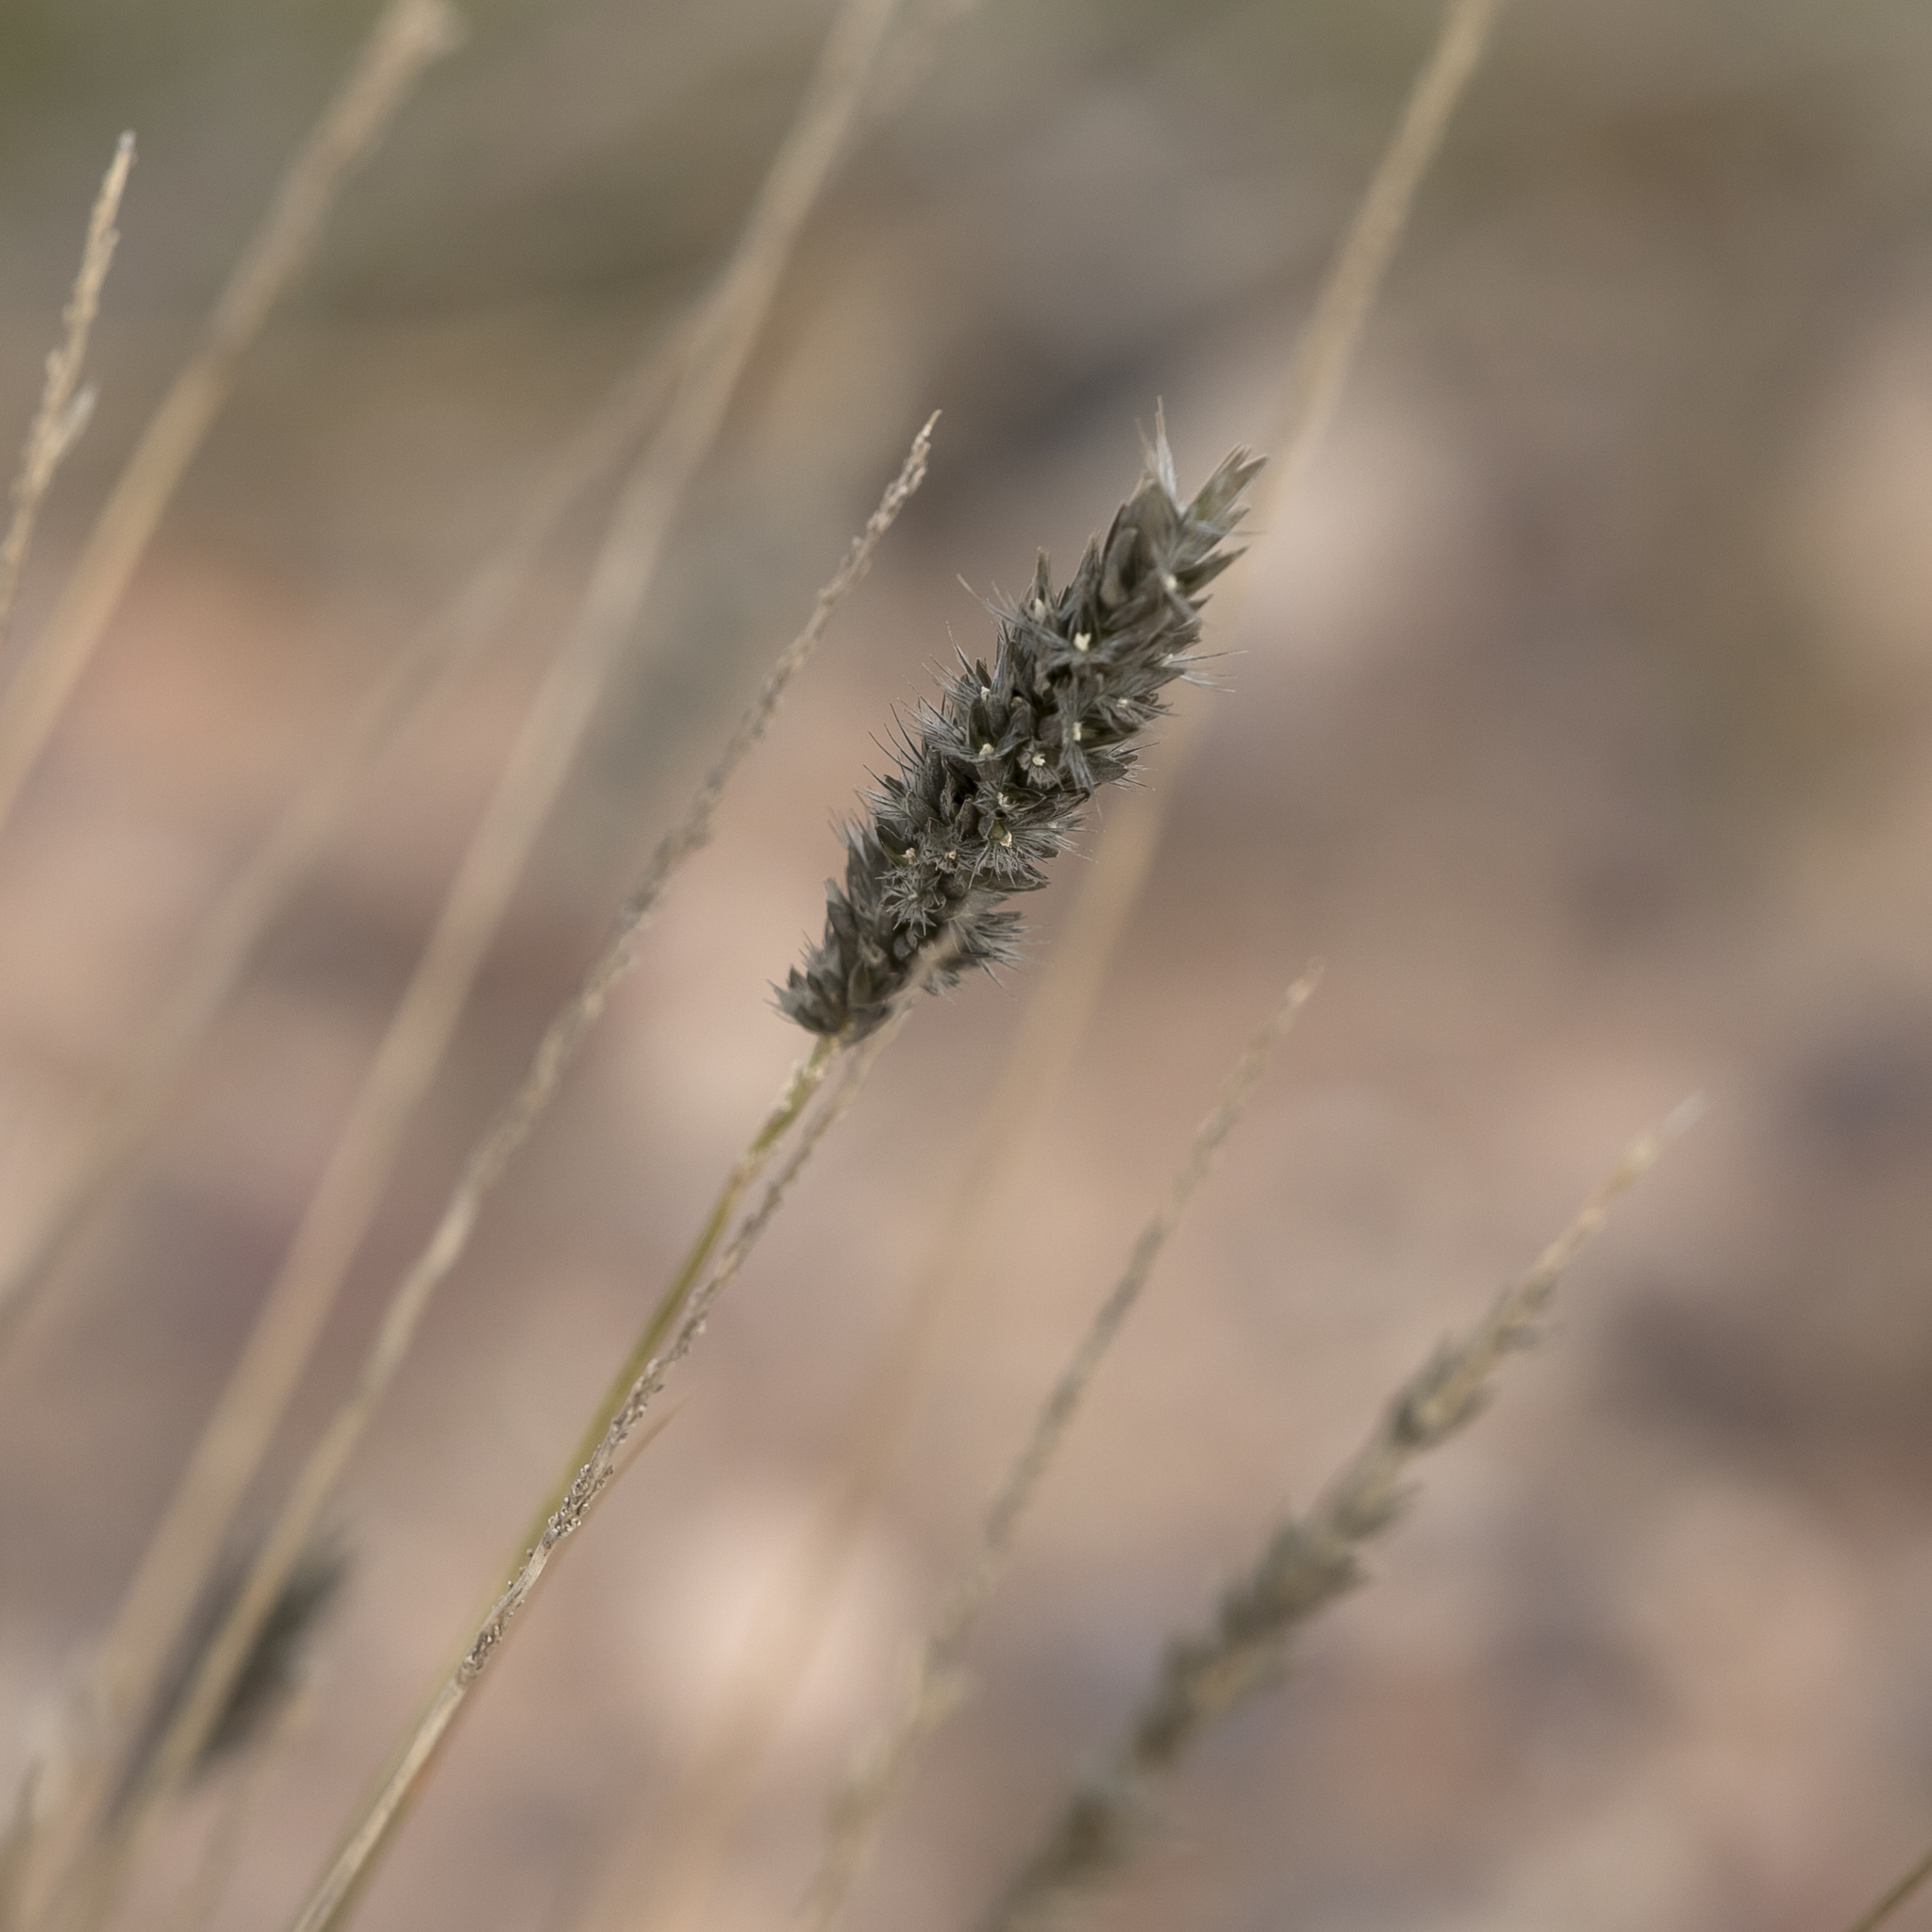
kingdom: Plantae
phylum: Tracheophyta
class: Liliopsida
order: Poales
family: Poaceae
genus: Enneapogon
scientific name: Enneapogon nigricans
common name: Pappus grass
